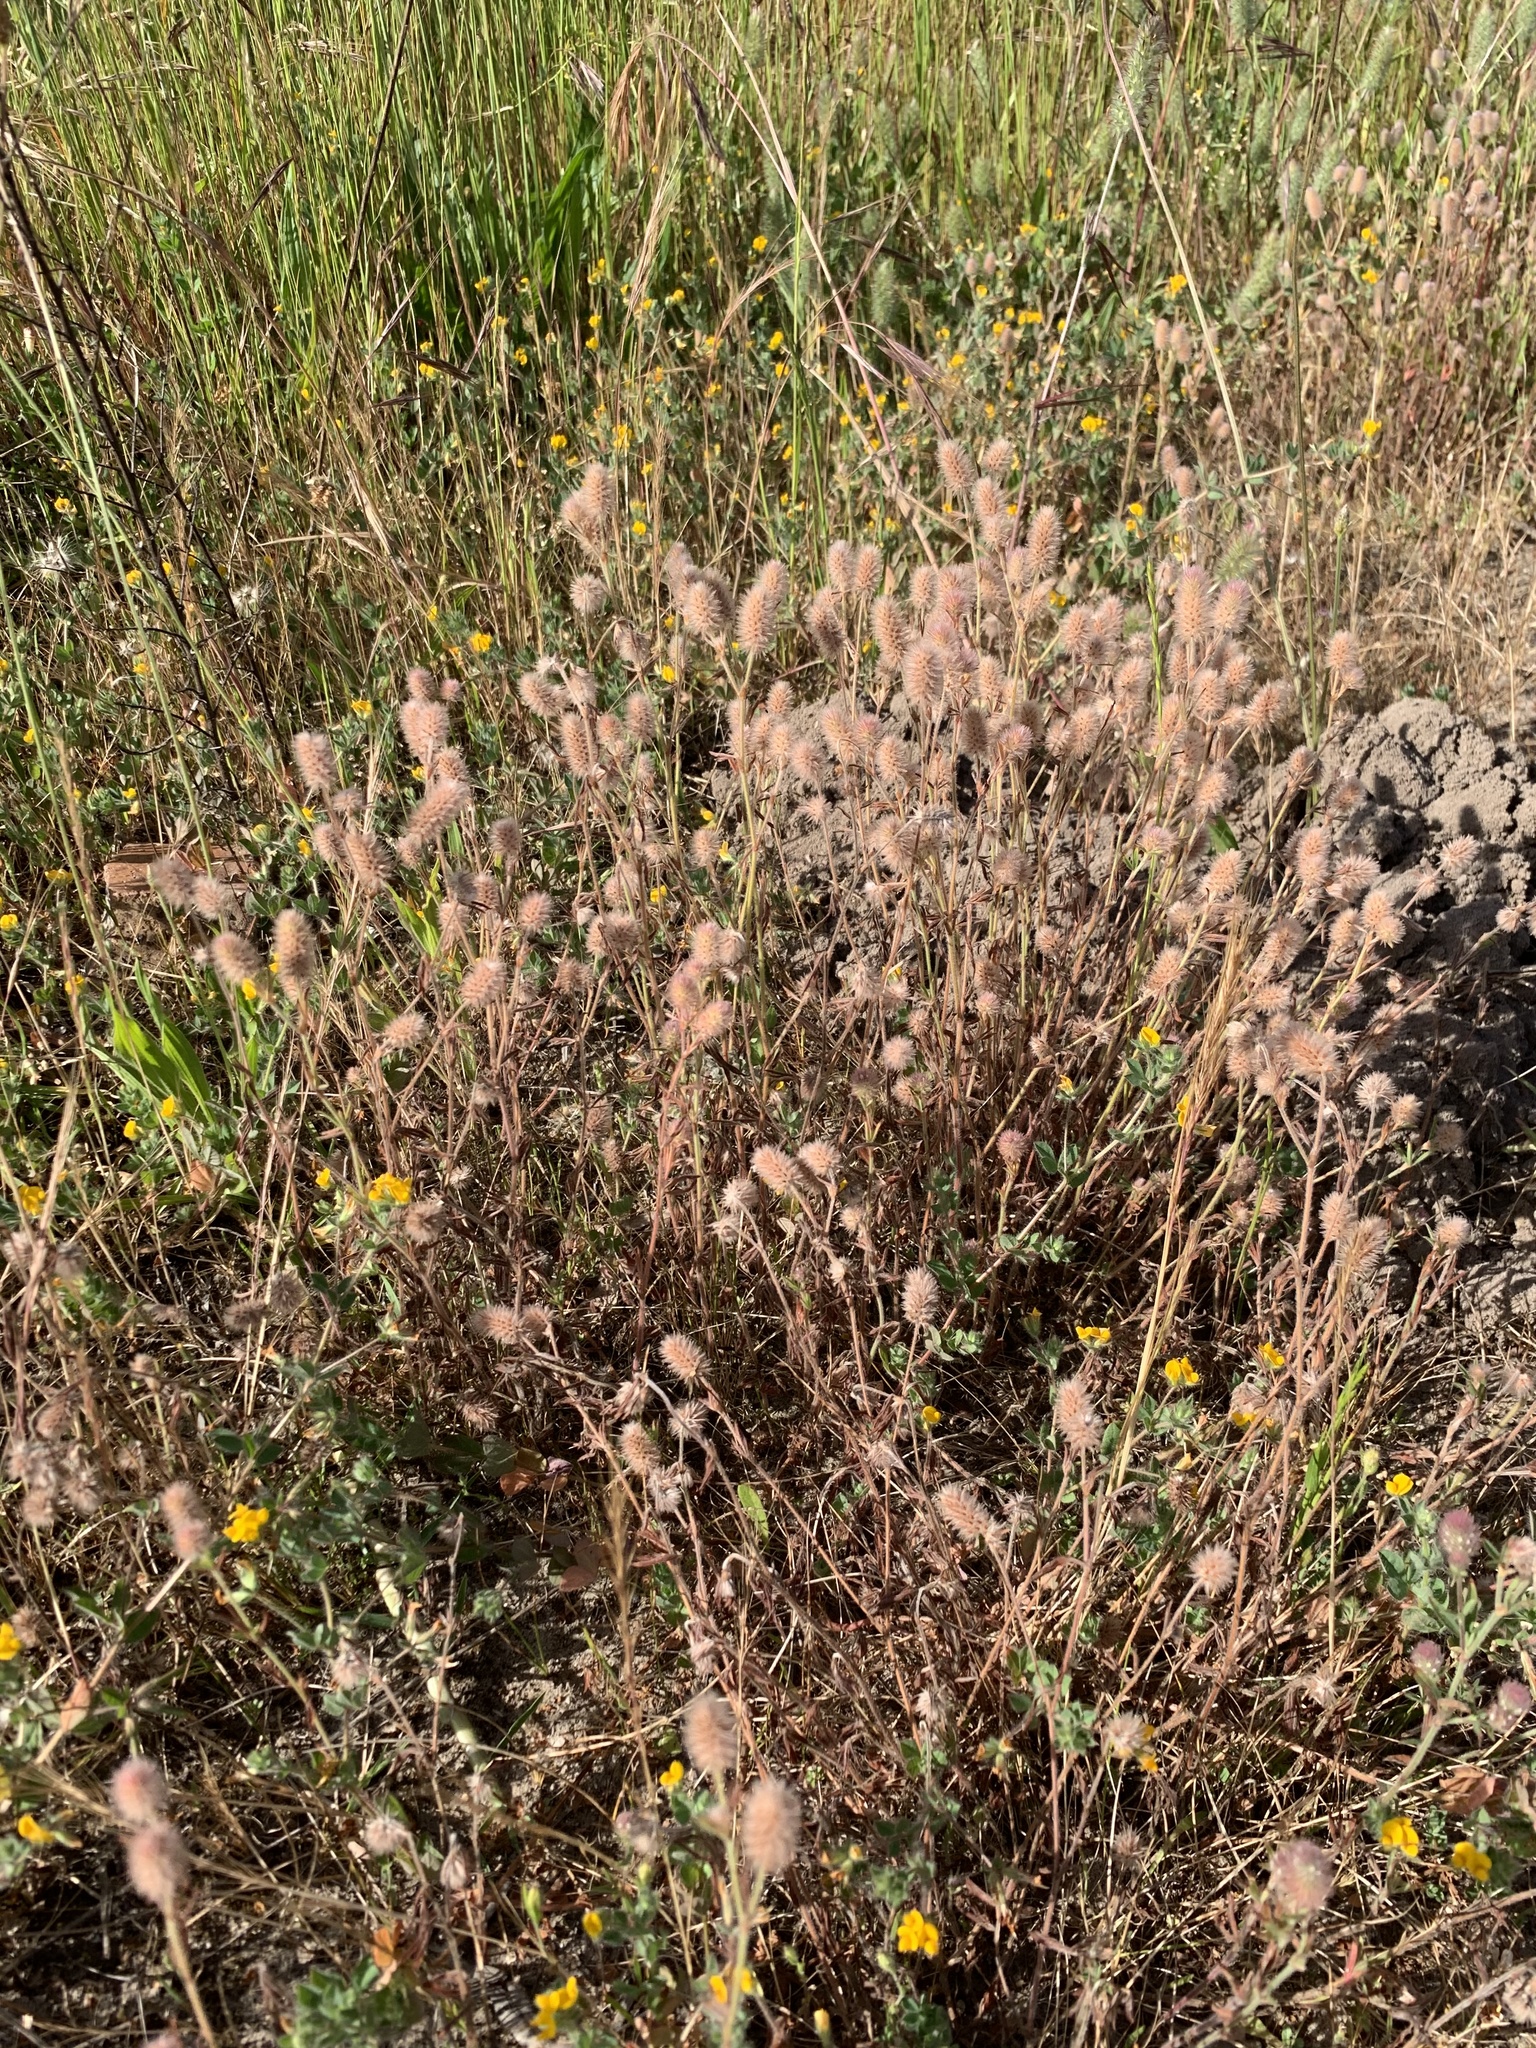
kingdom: Plantae
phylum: Tracheophyta
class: Magnoliopsida
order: Fabales
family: Fabaceae
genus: Trifolium
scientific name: Trifolium arvense
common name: Hare's-foot clover
